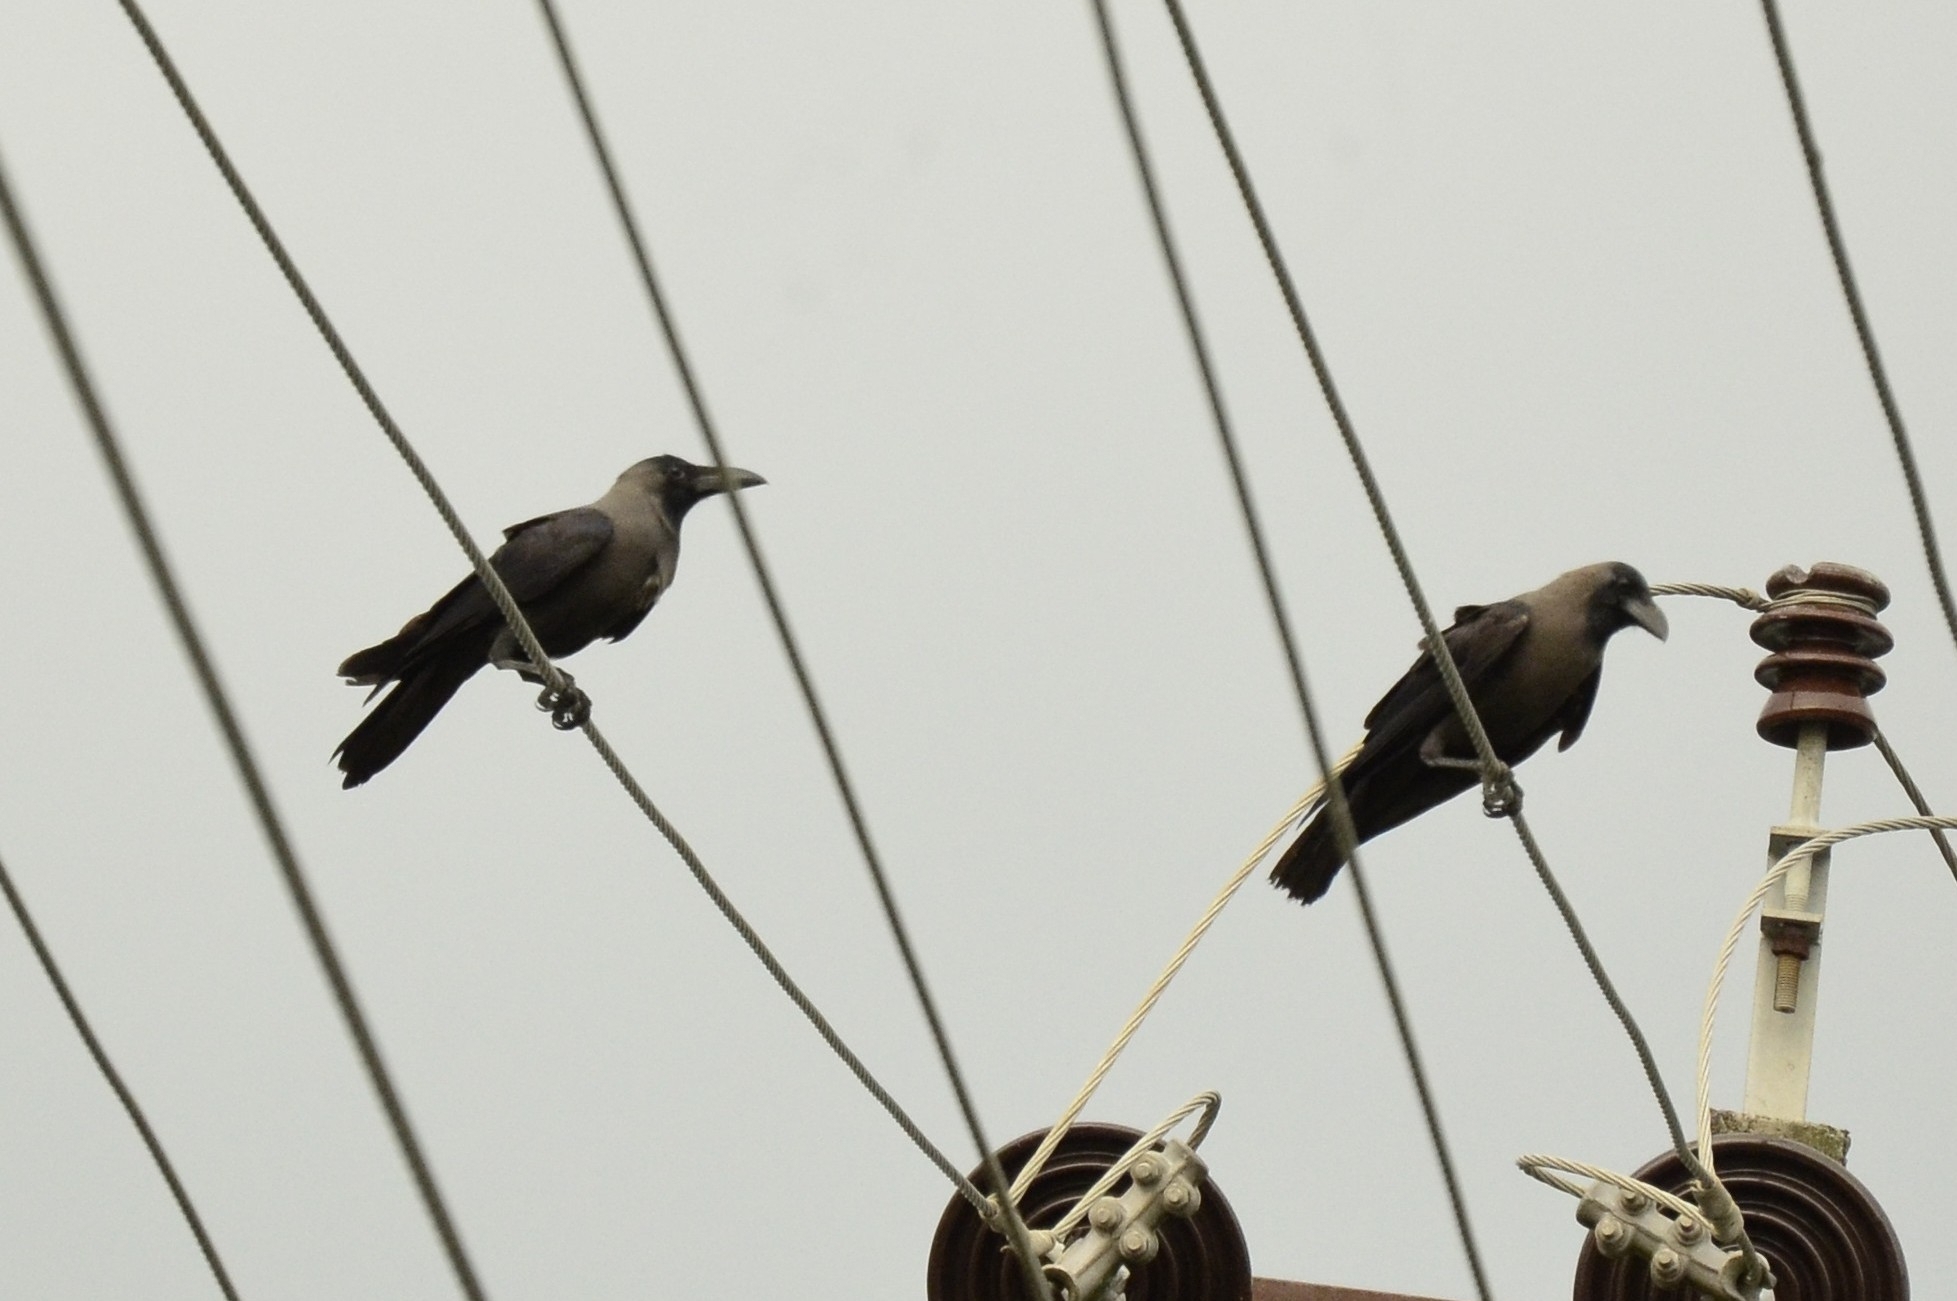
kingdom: Animalia
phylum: Chordata
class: Aves
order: Passeriformes
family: Corvidae
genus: Corvus
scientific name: Corvus splendens
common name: House crow
